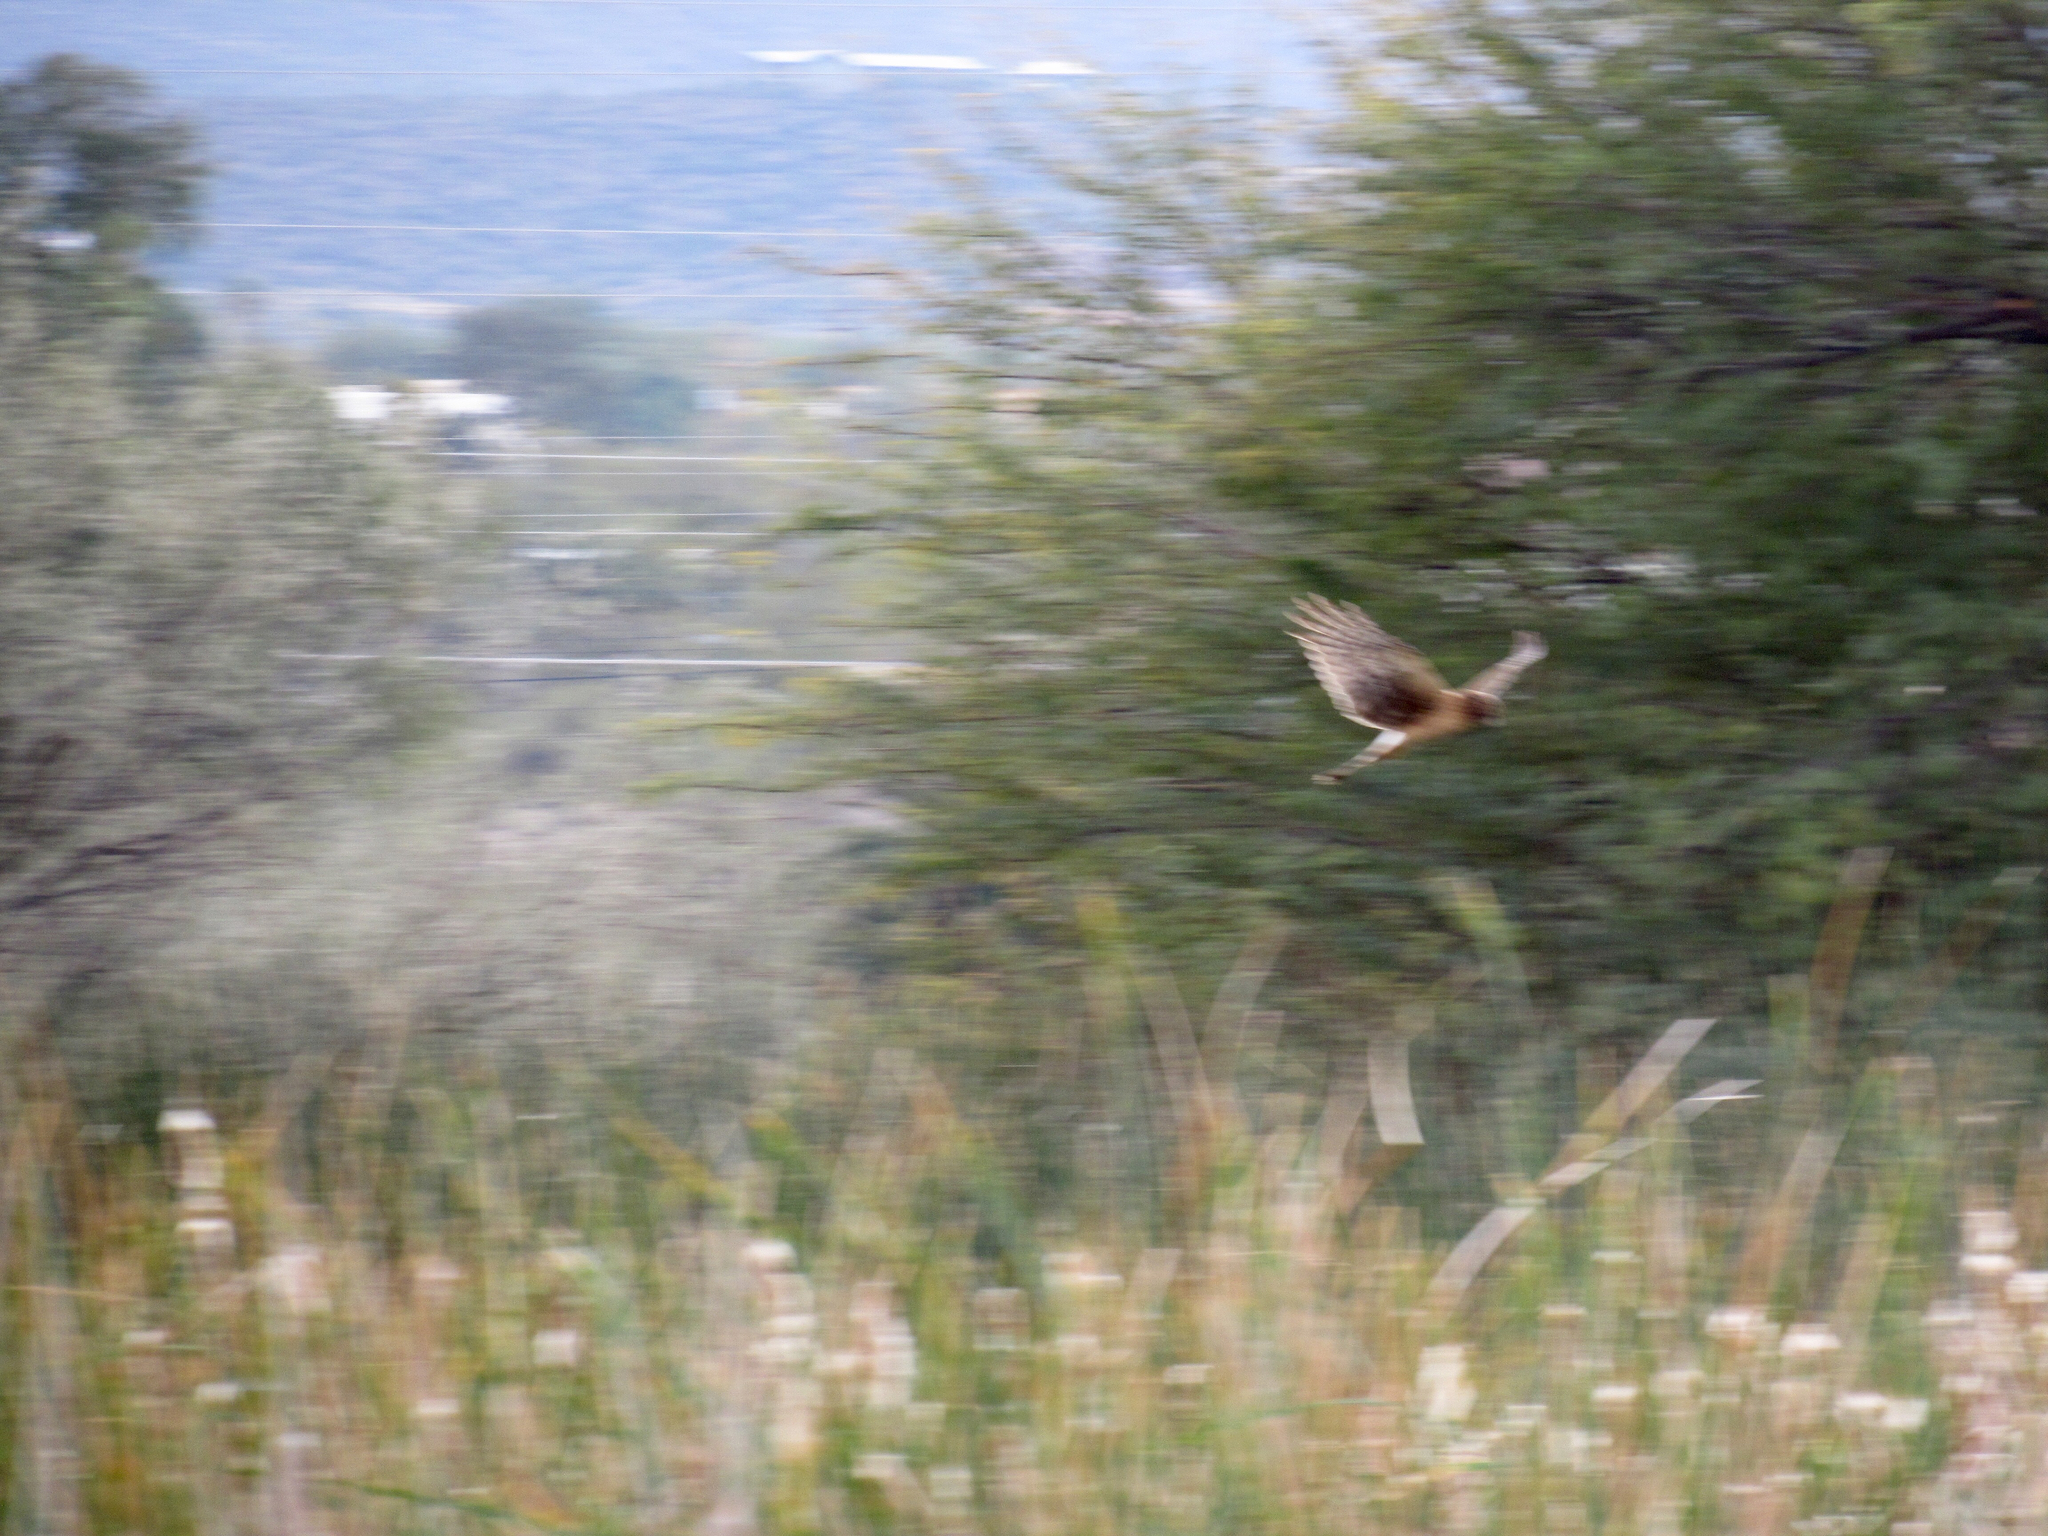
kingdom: Animalia
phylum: Chordata
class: Aves
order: Accipitriformes
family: Accipitridae
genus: Circus
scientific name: Circus cyaneus
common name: Hen harrier
